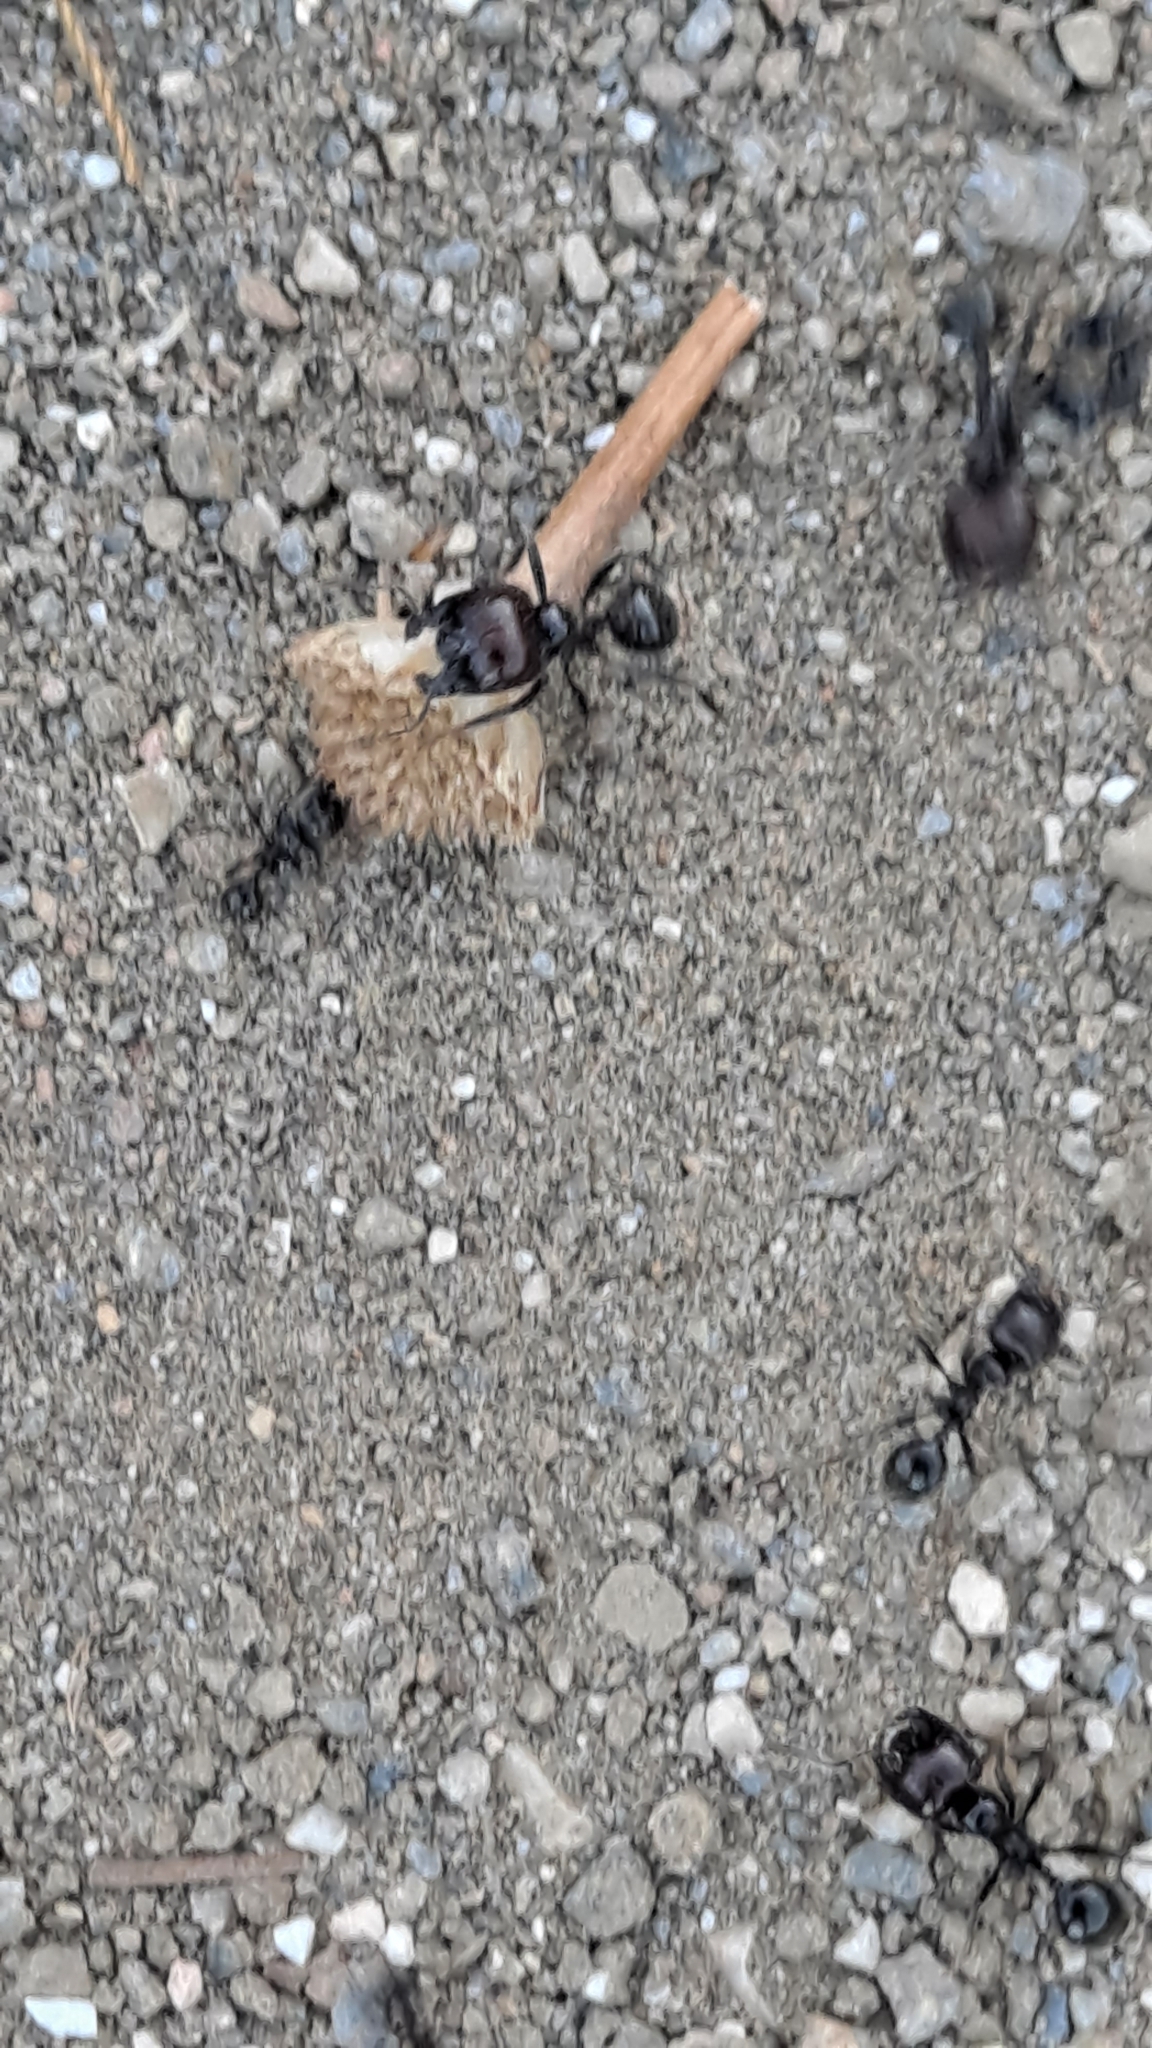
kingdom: Animalia
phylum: Arthropoda
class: Insecta
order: Hymenoptera
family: Formicidae
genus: Messor
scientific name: Messor barbarus
